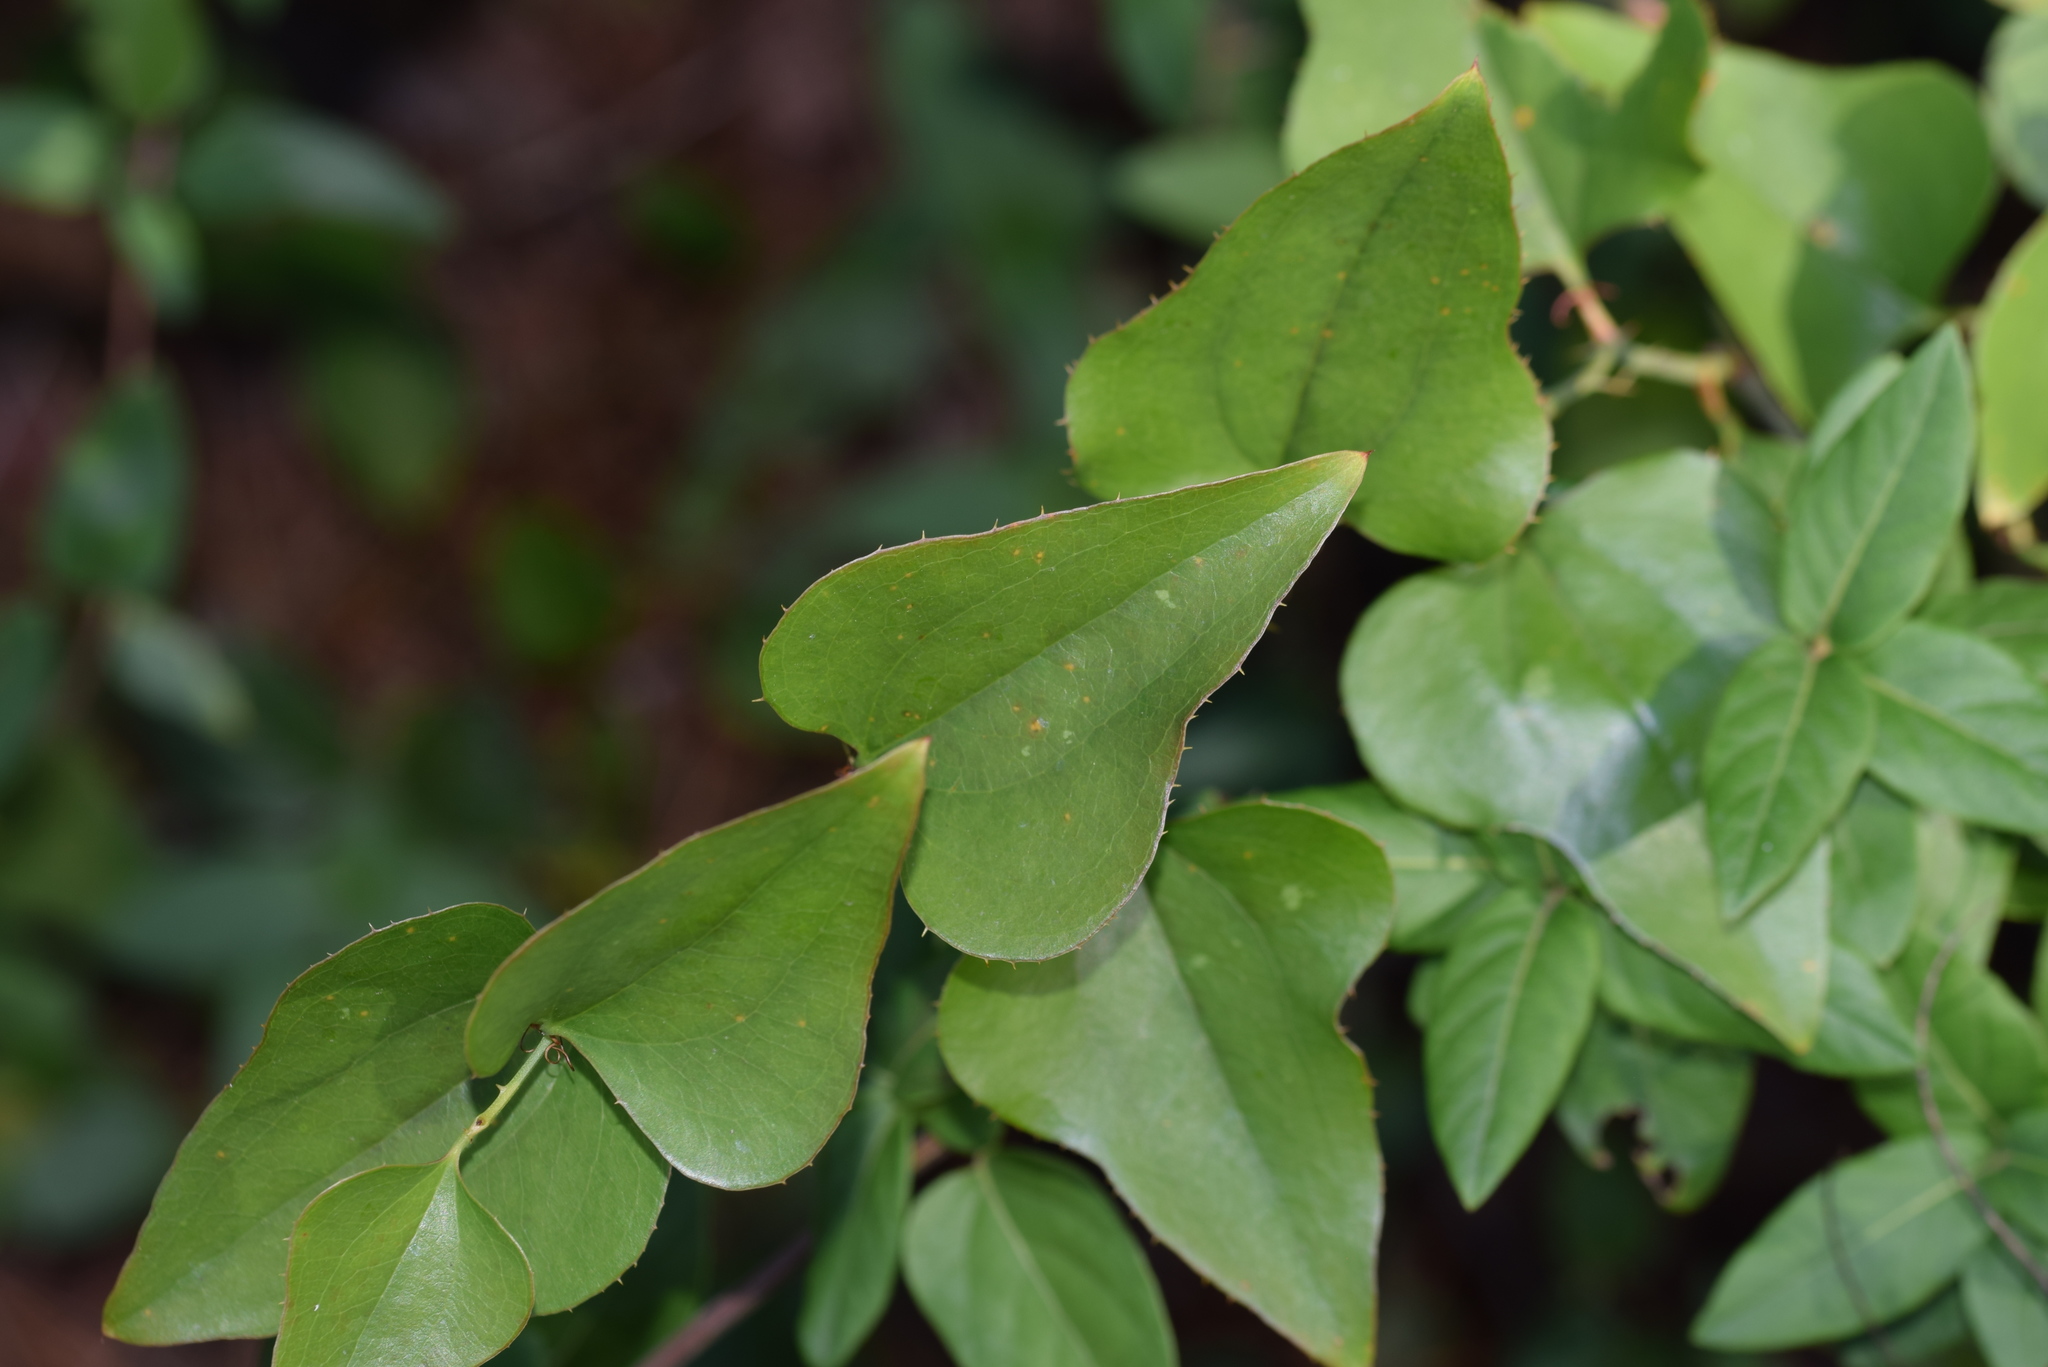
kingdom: Plantae
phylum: Tracheophyta
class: Liliopsida
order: Liliales
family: Smilacaceae
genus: Smilax
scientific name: Smilax bona-nox
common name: Catbrier
